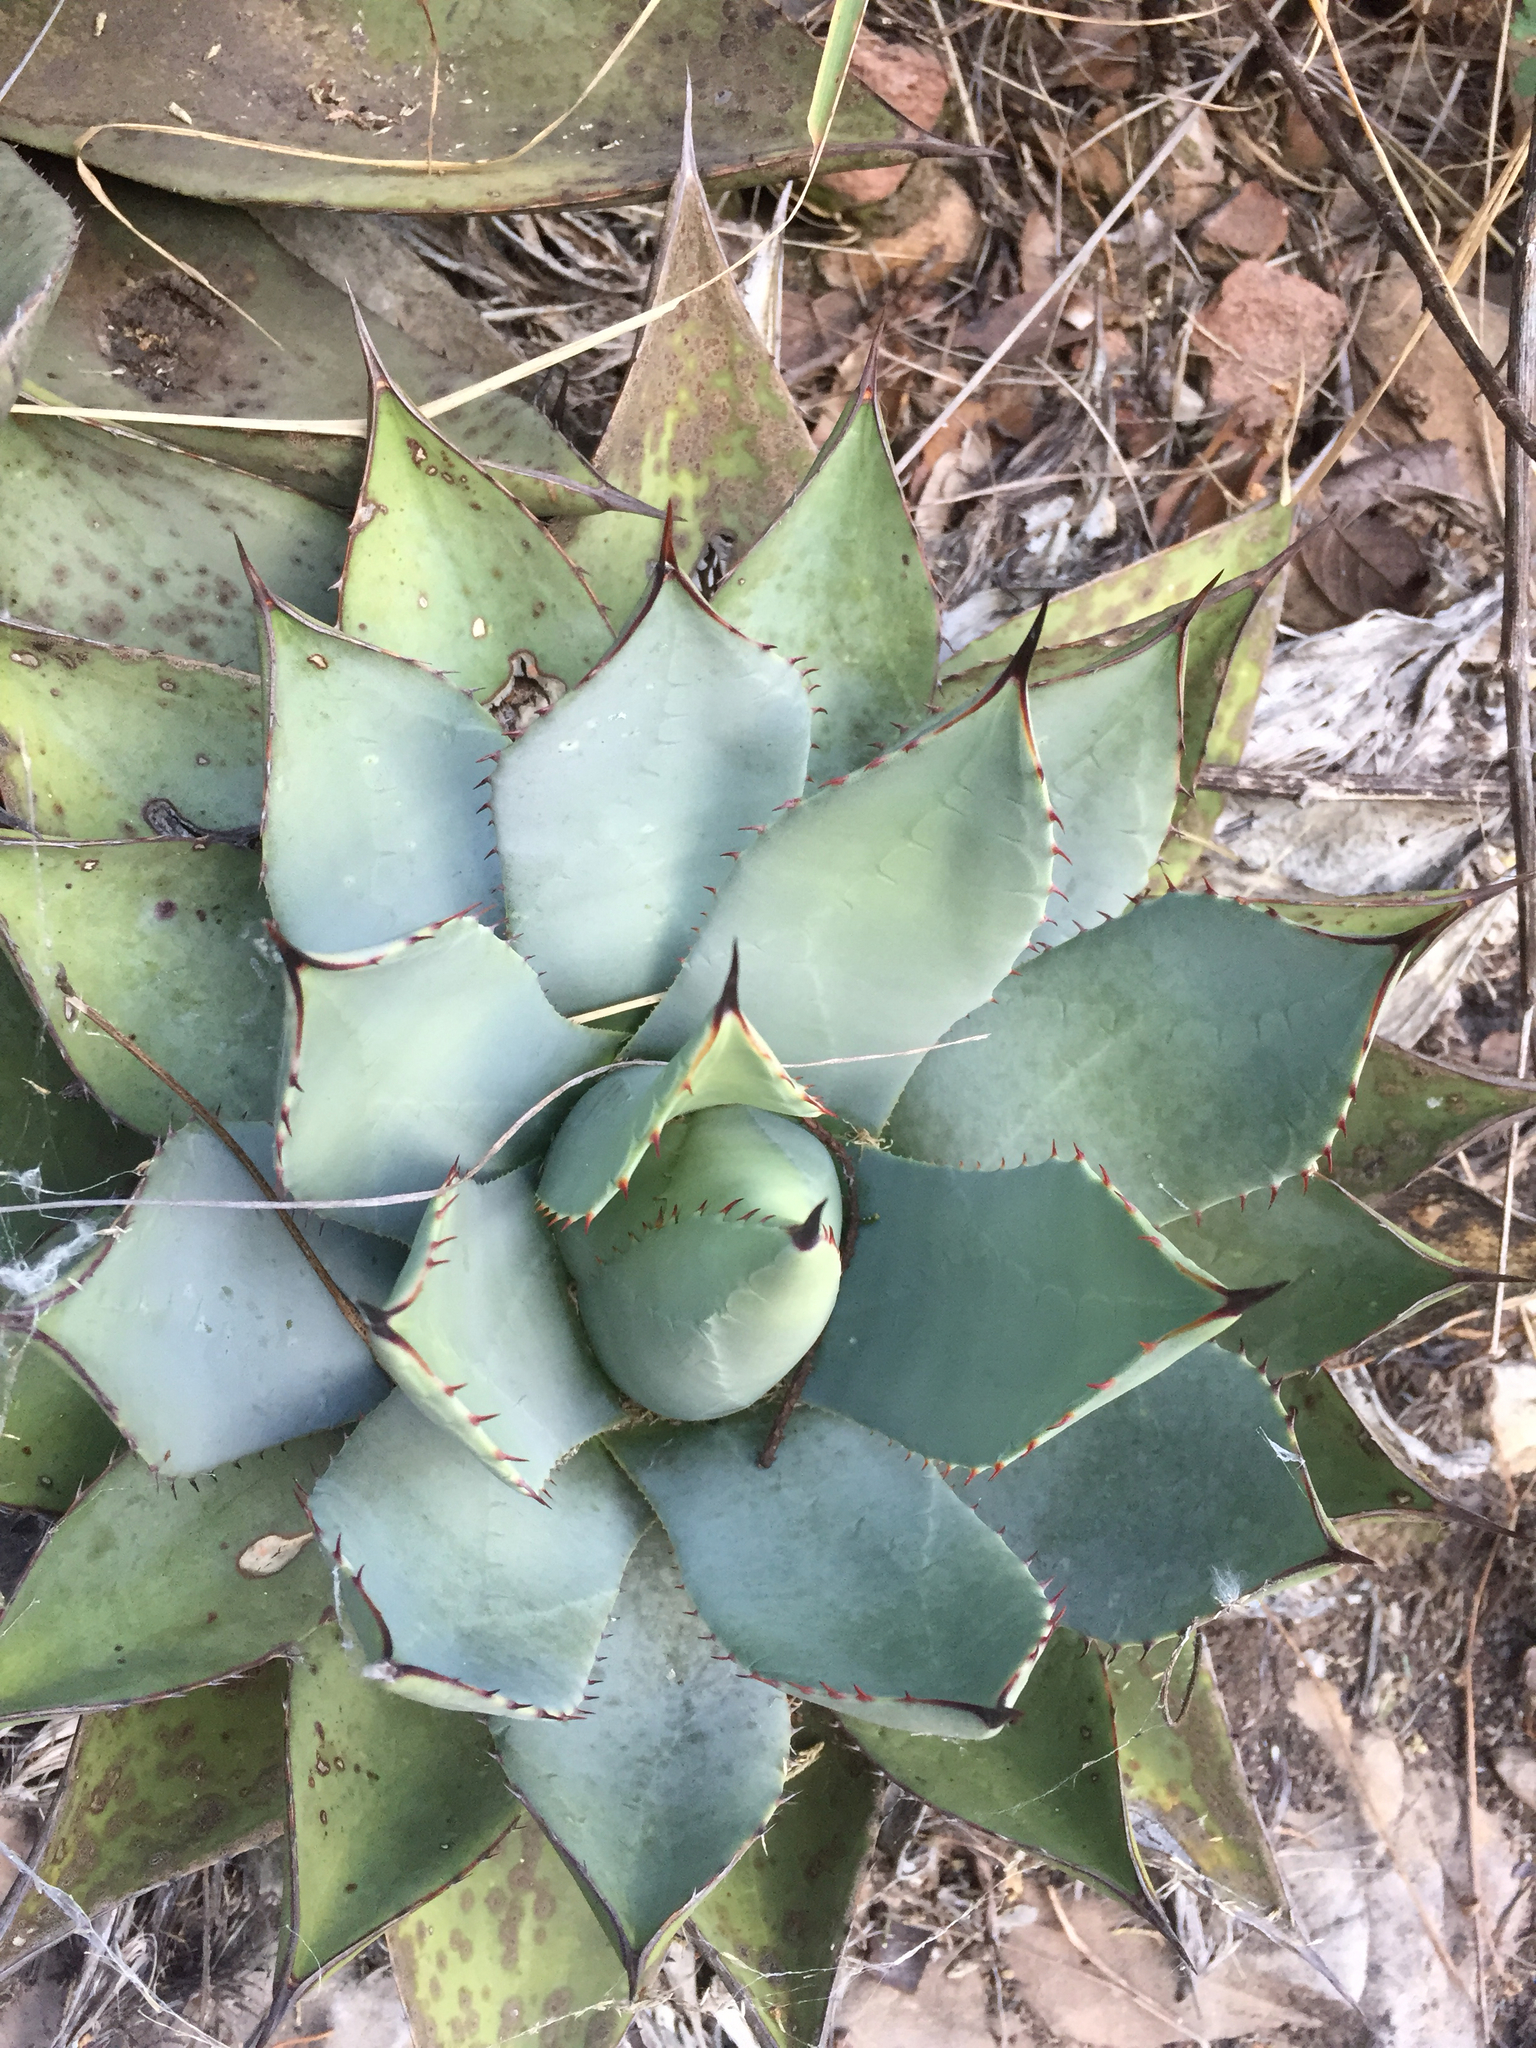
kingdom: Plantae
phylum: Tracheophyta
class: Liliopsida
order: Asparagales
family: Asparagaceae
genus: Agave
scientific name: Agave parryi
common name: Parry's agave
